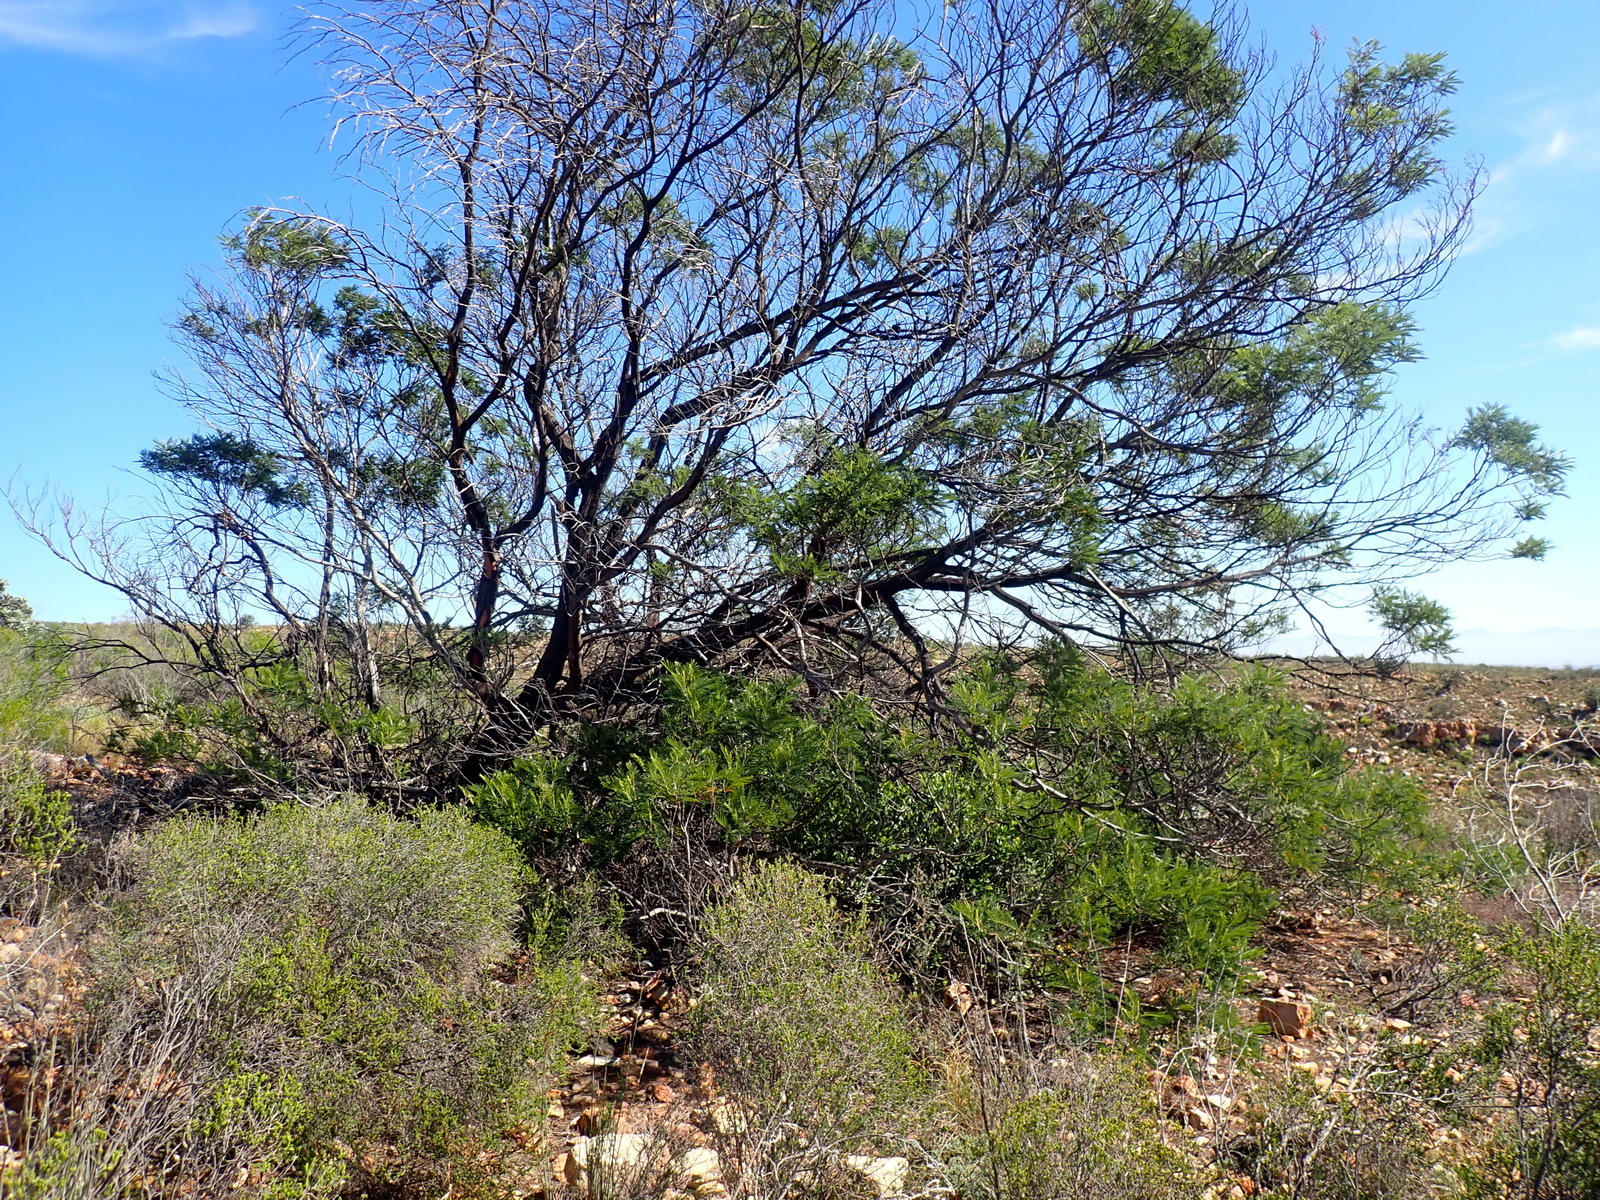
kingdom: Plantae
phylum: Tracheophyta
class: Magnoliopsida
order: Fabales
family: Fabaceae
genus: Acacia
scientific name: Acacia mearnsii
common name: Black wattle
